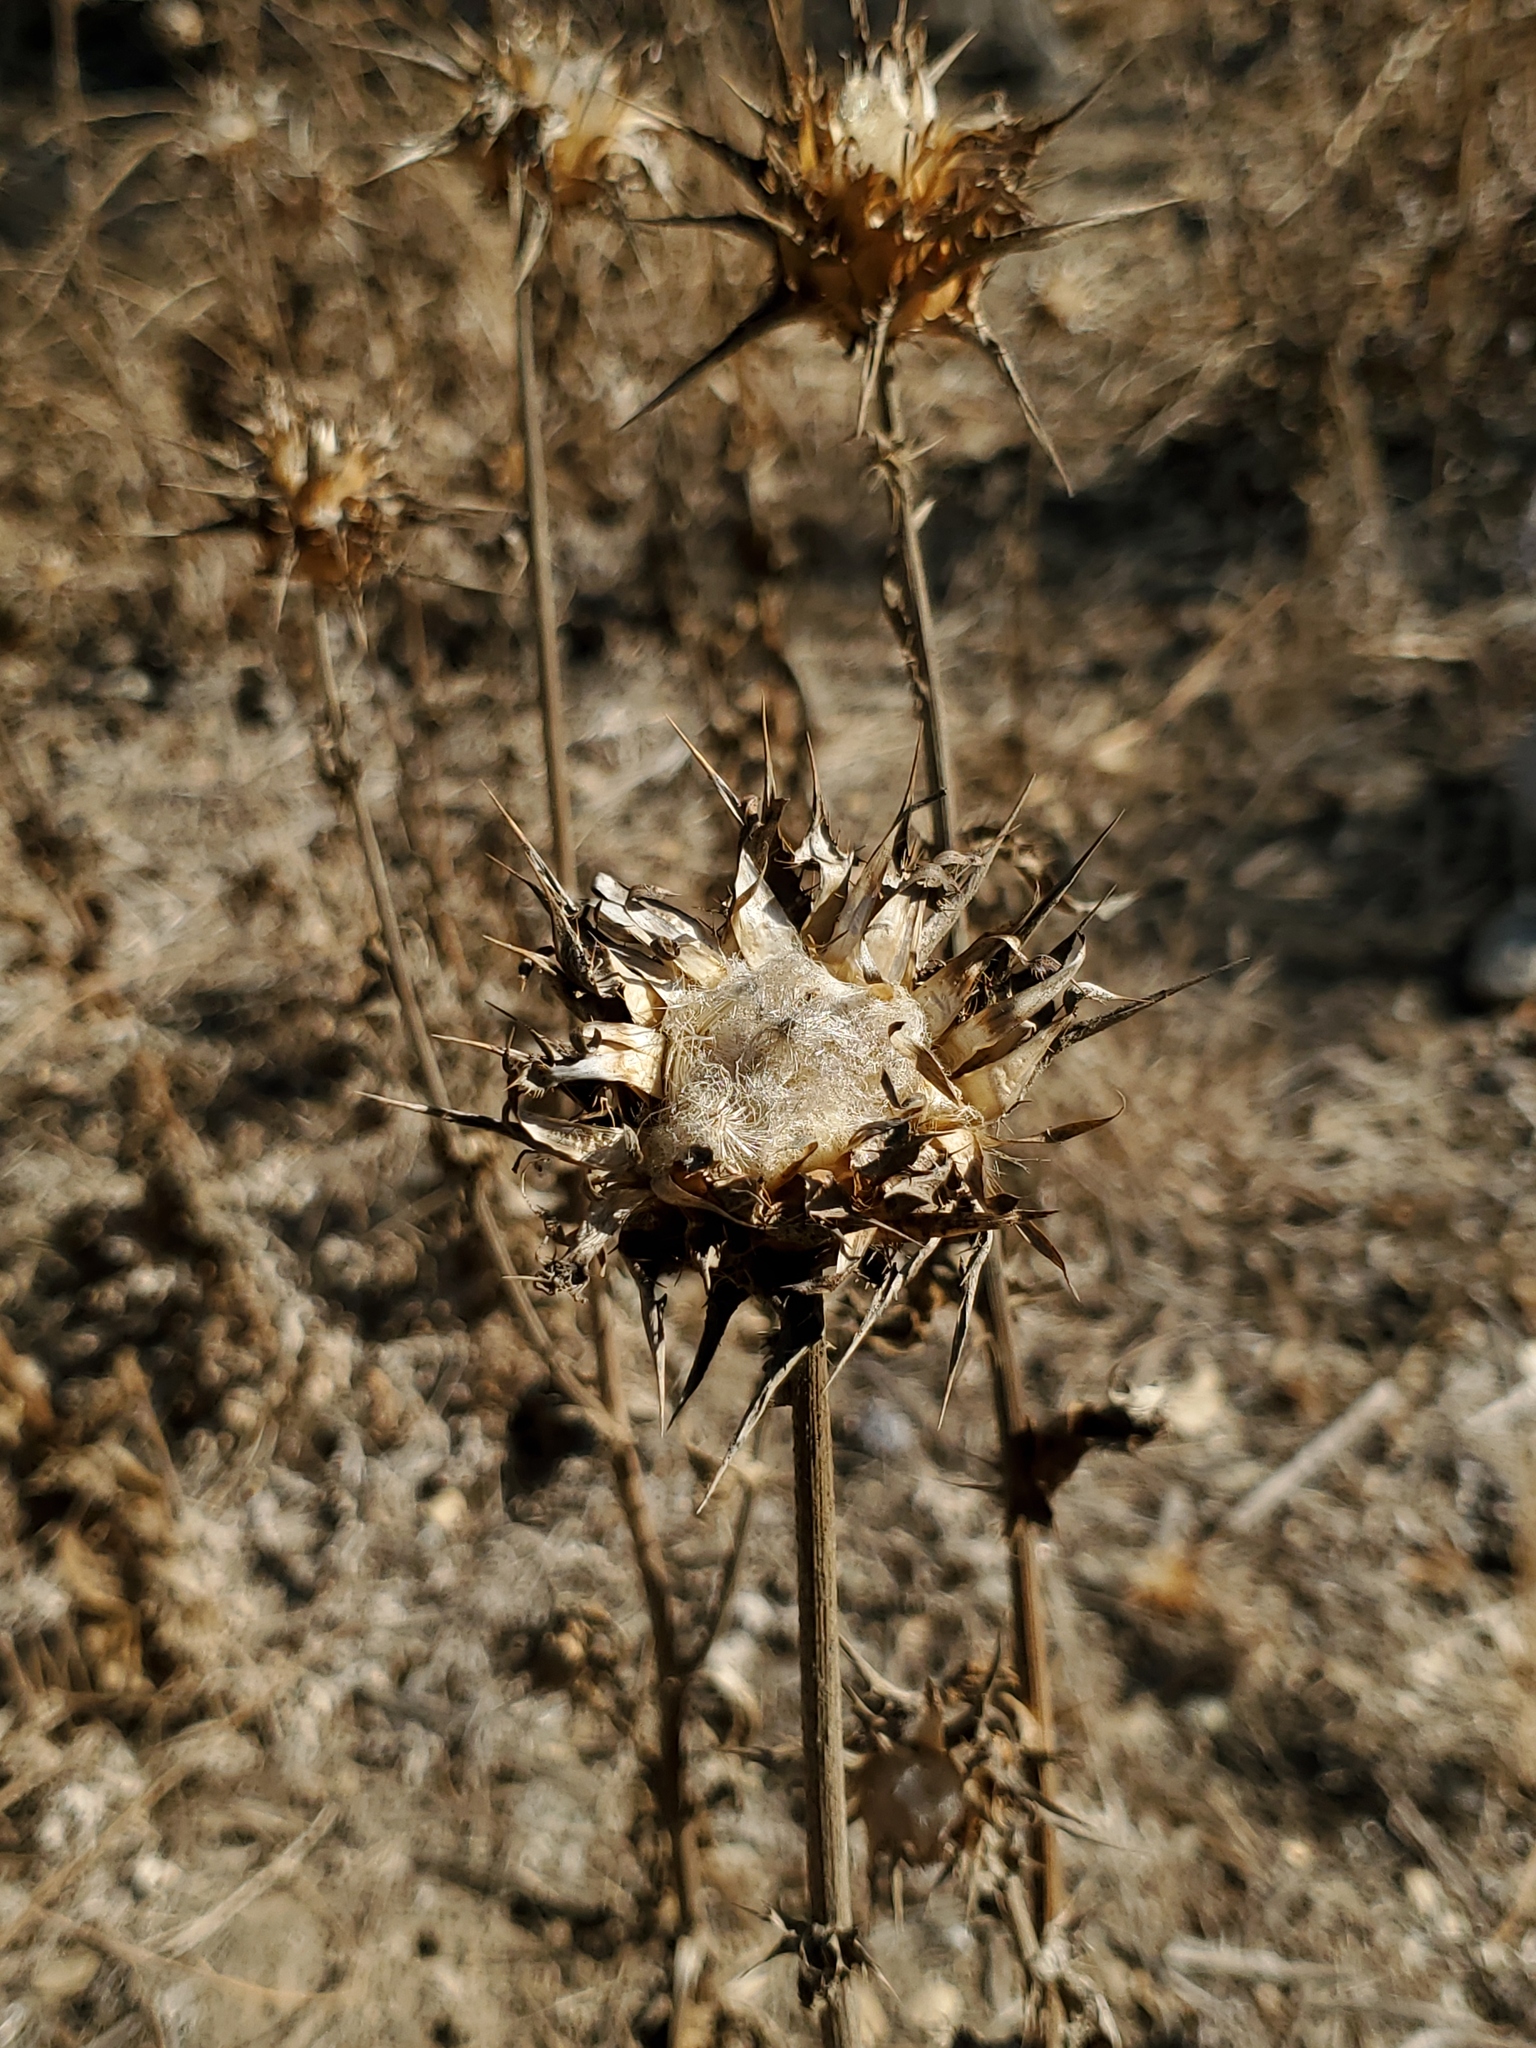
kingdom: Plantae
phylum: Tracheophyta
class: Magnoliopsida
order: Asterales
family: Asteraceae
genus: Silybum
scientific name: Silybum marianum
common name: Milk thistle
